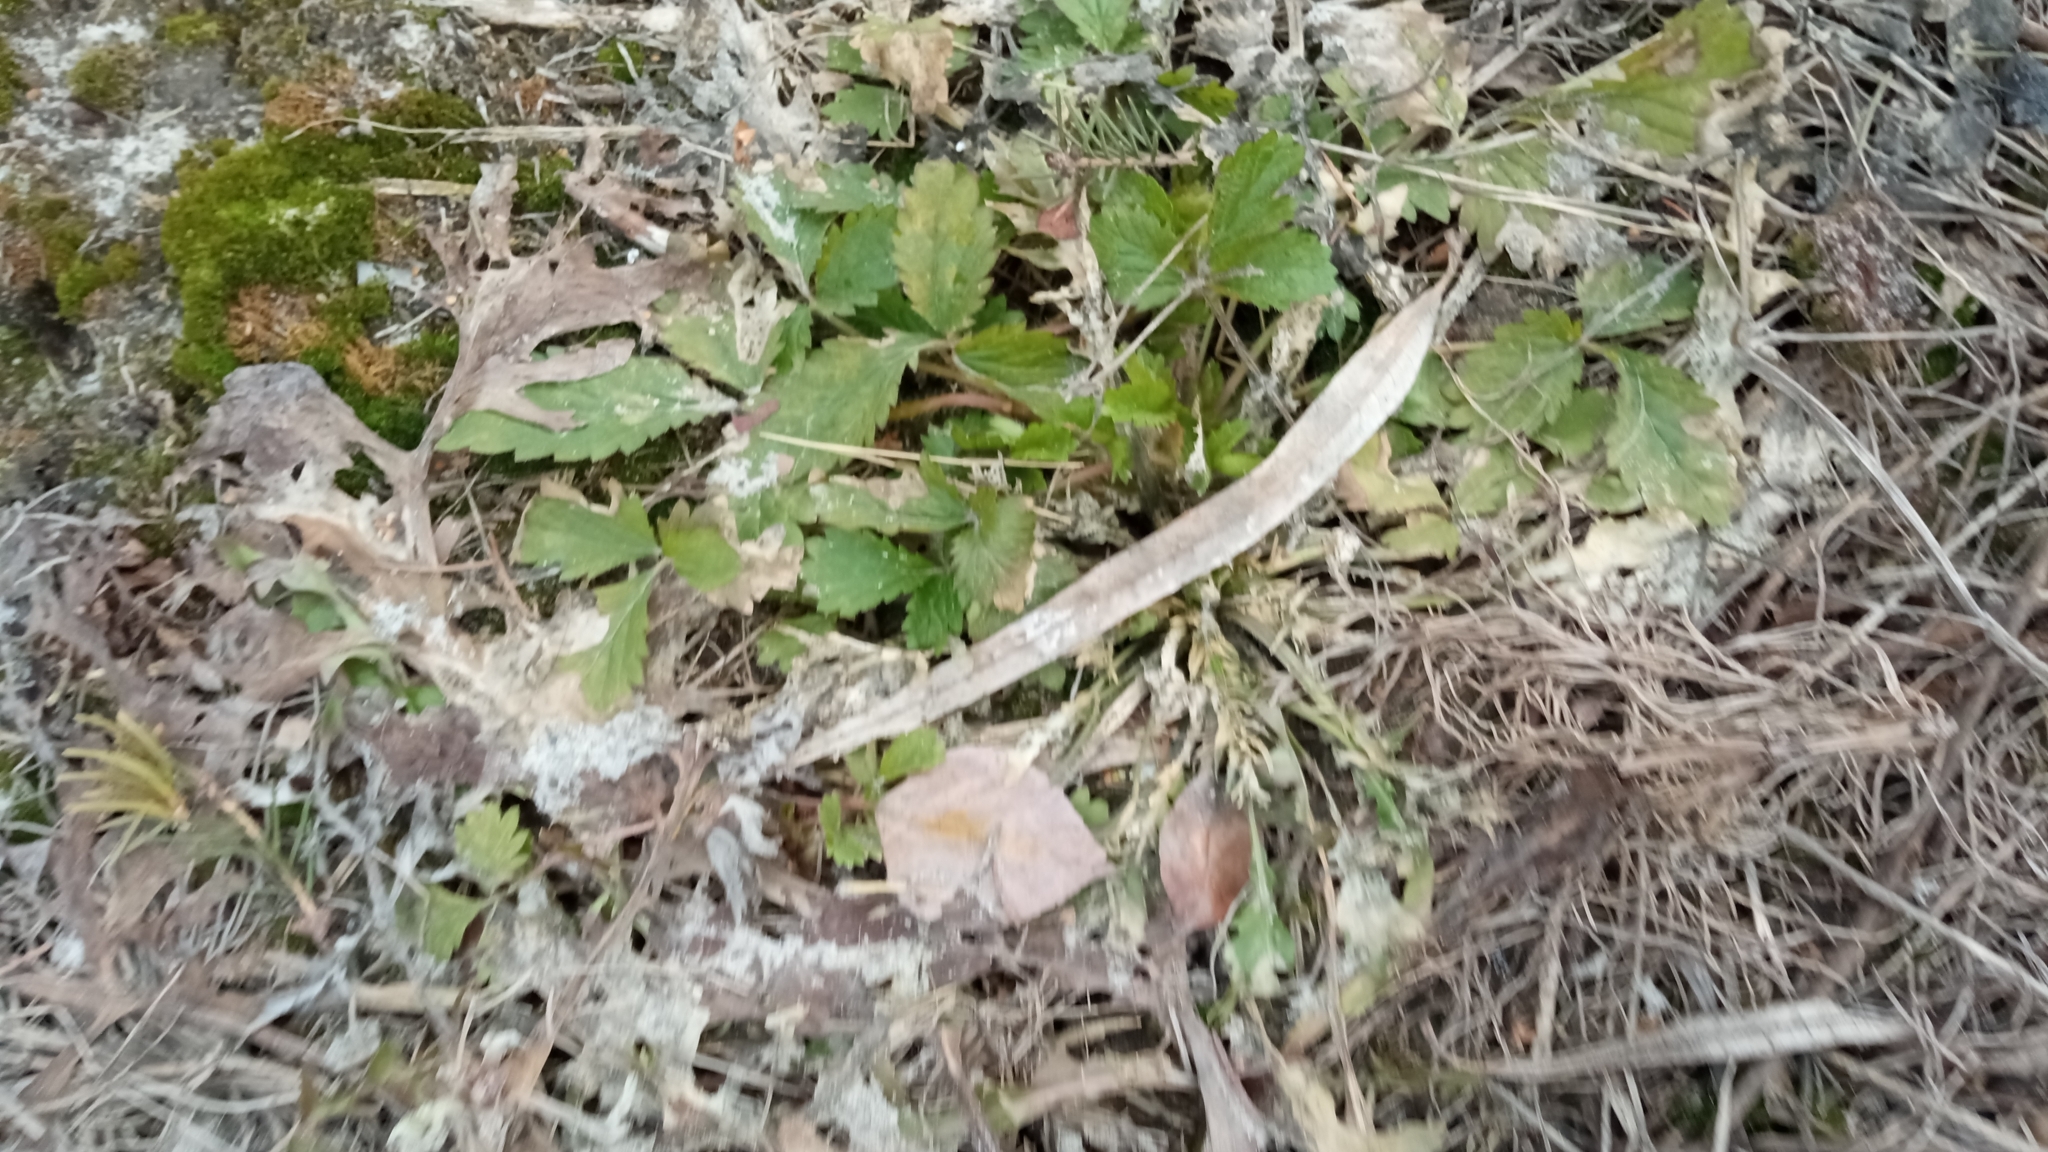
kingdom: Plantae
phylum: Tracheophyta
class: Magnoliopsida
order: Rosales
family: Rosaceae
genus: Potentilla
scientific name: Potentilla norvegica
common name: Ternate-leaved cinquefoil
